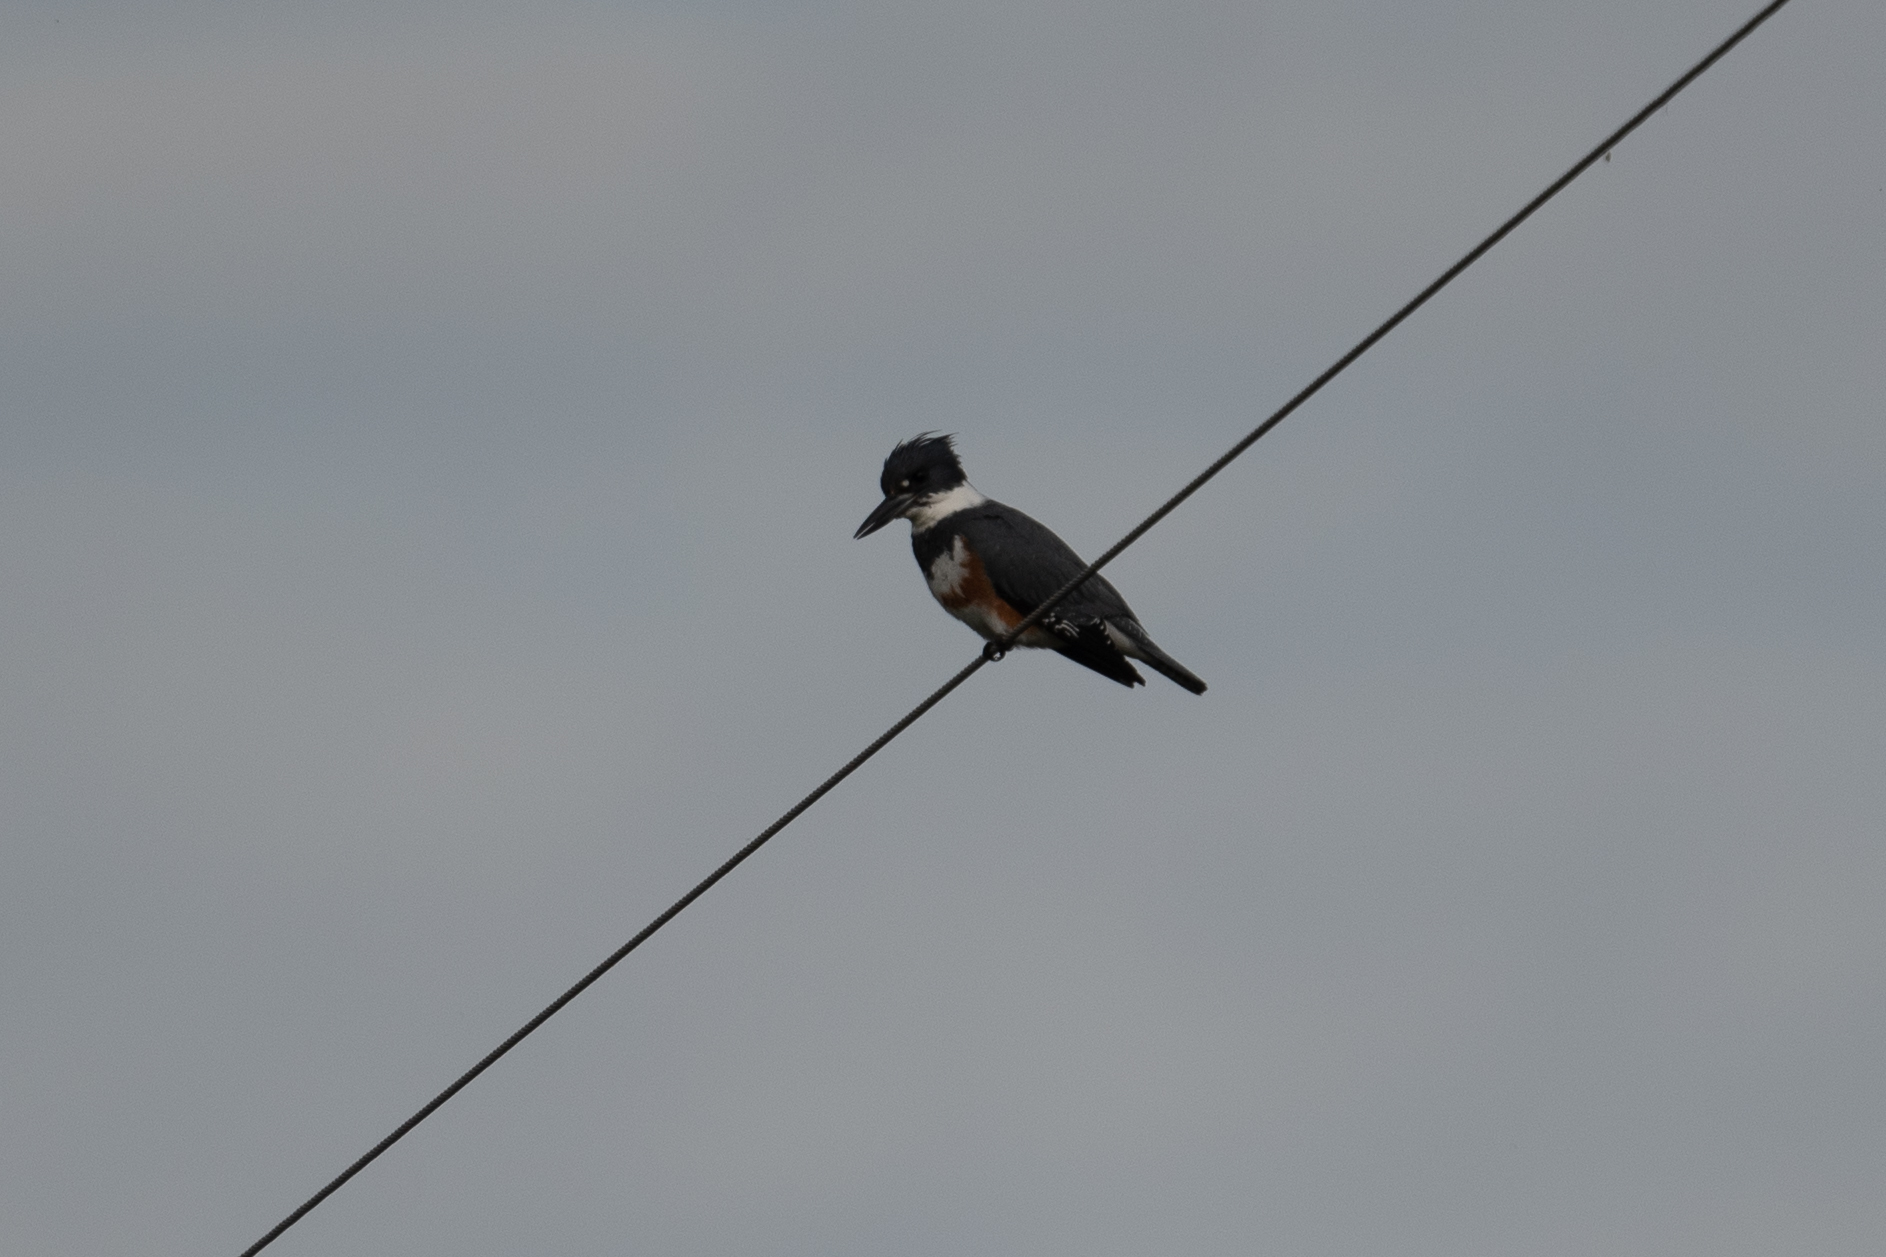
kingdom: Animalia
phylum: Chordata
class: Aves
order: Coraciiformes
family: Alcedinidae
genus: Megaceryle
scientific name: Megaceryle alcyon
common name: Belted kingfisher
